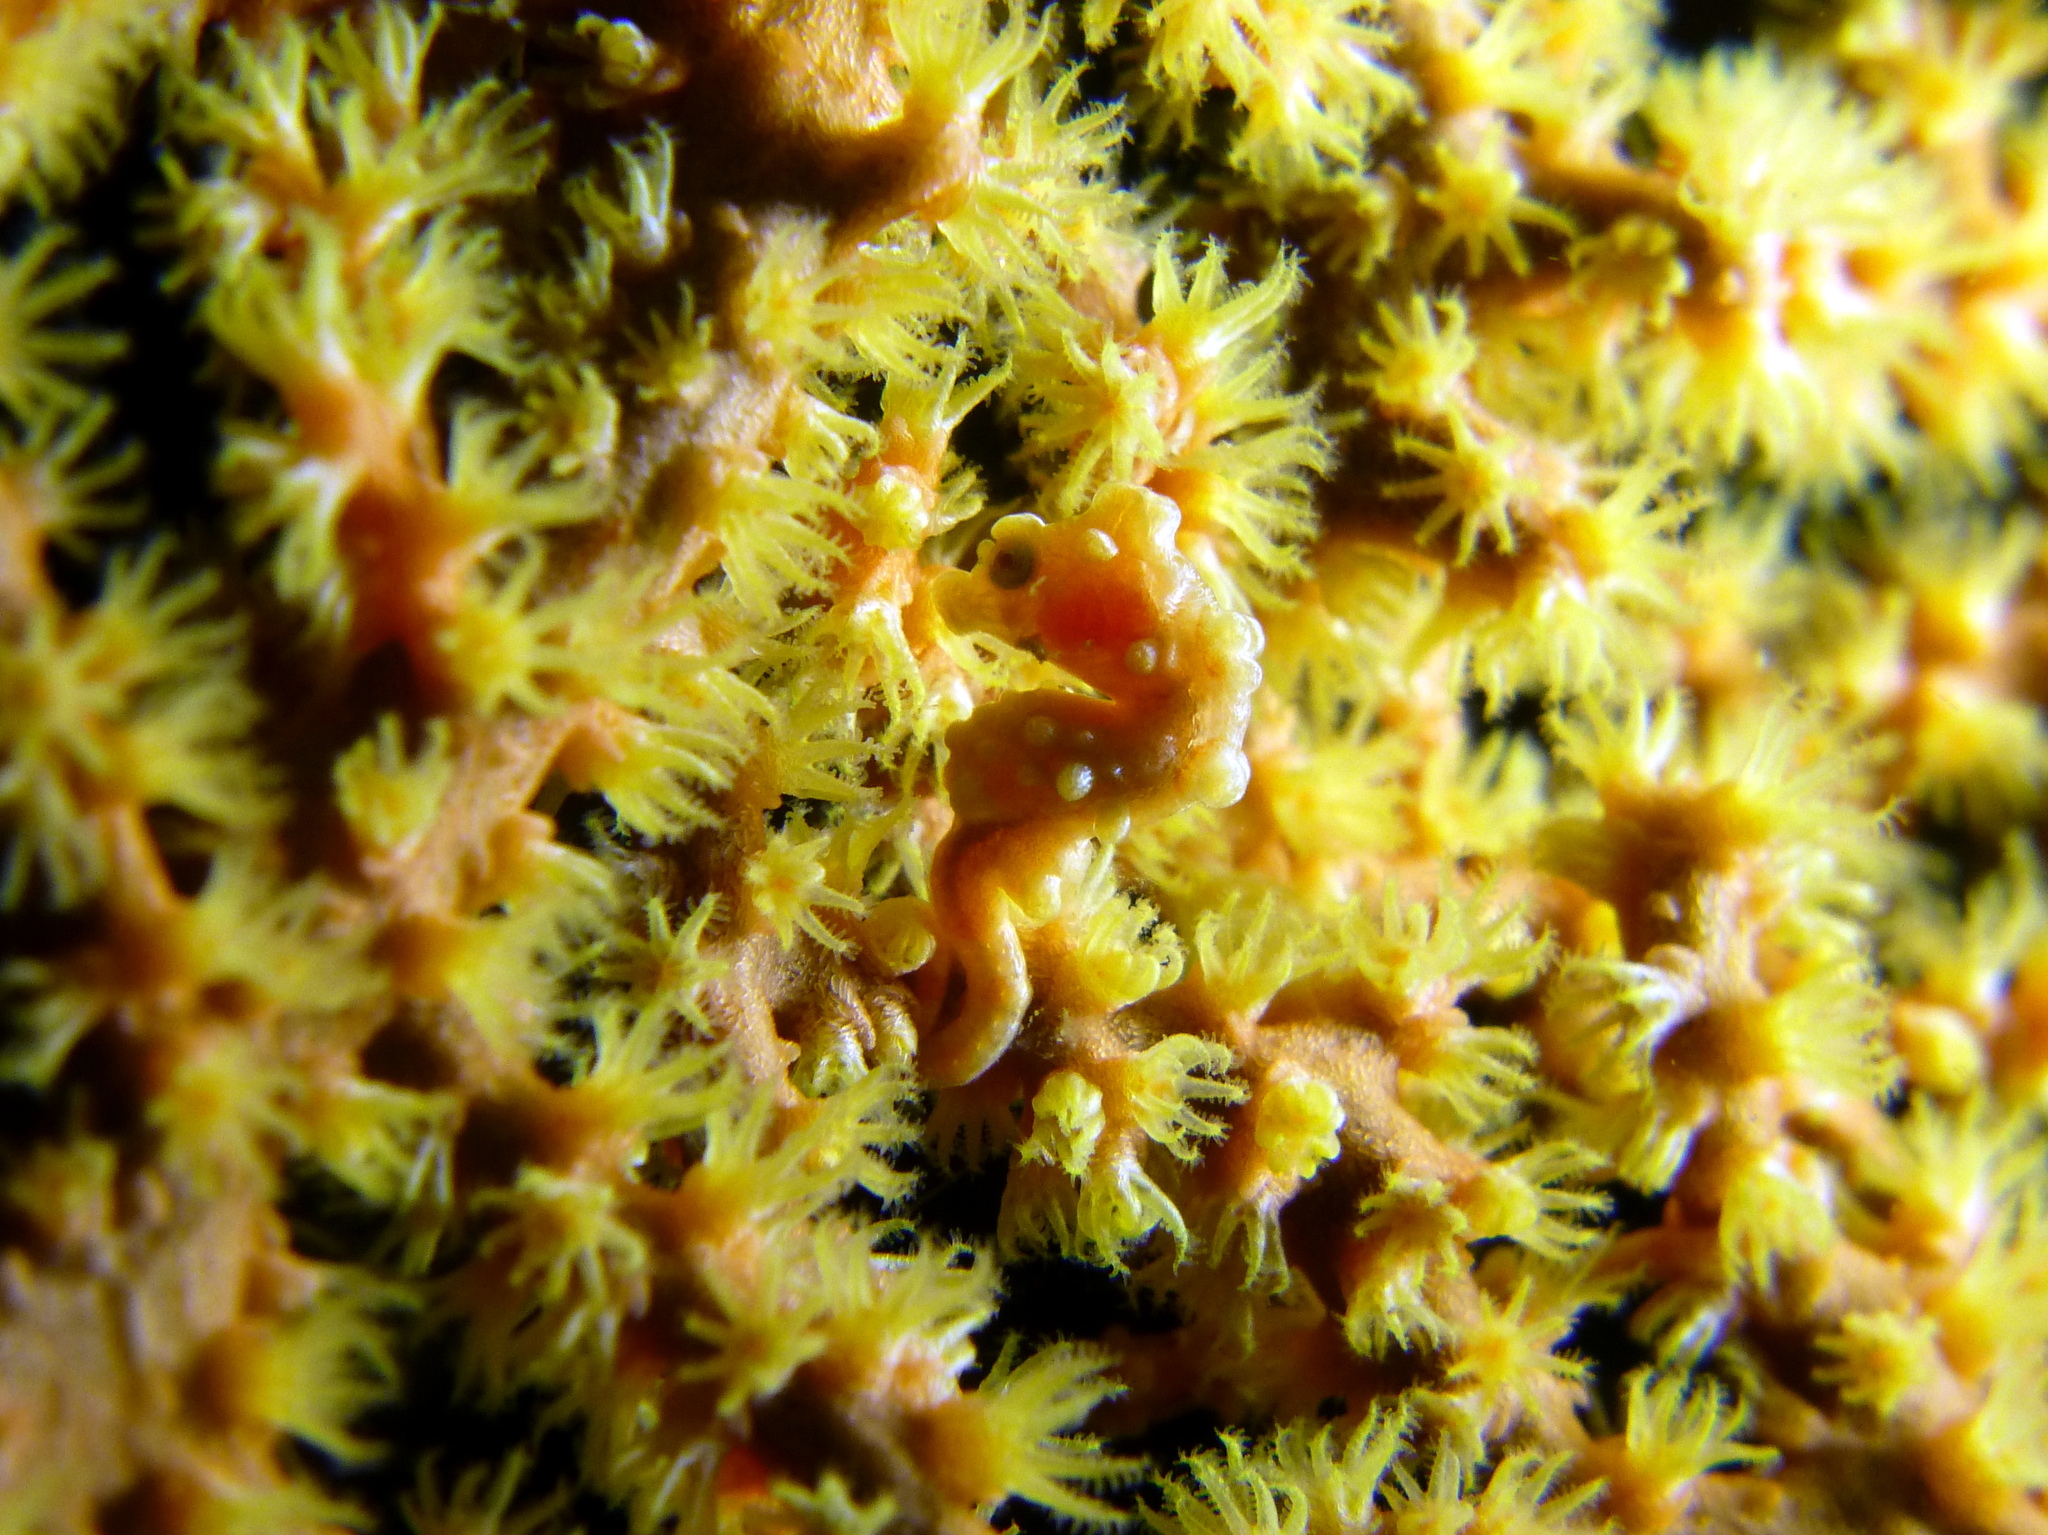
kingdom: Animalia
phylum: Chordata
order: Syngnathiformes
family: Syngnathidae
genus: Hippocampus
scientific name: Hippocampus bargibanti
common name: Bargibant's seahorse
